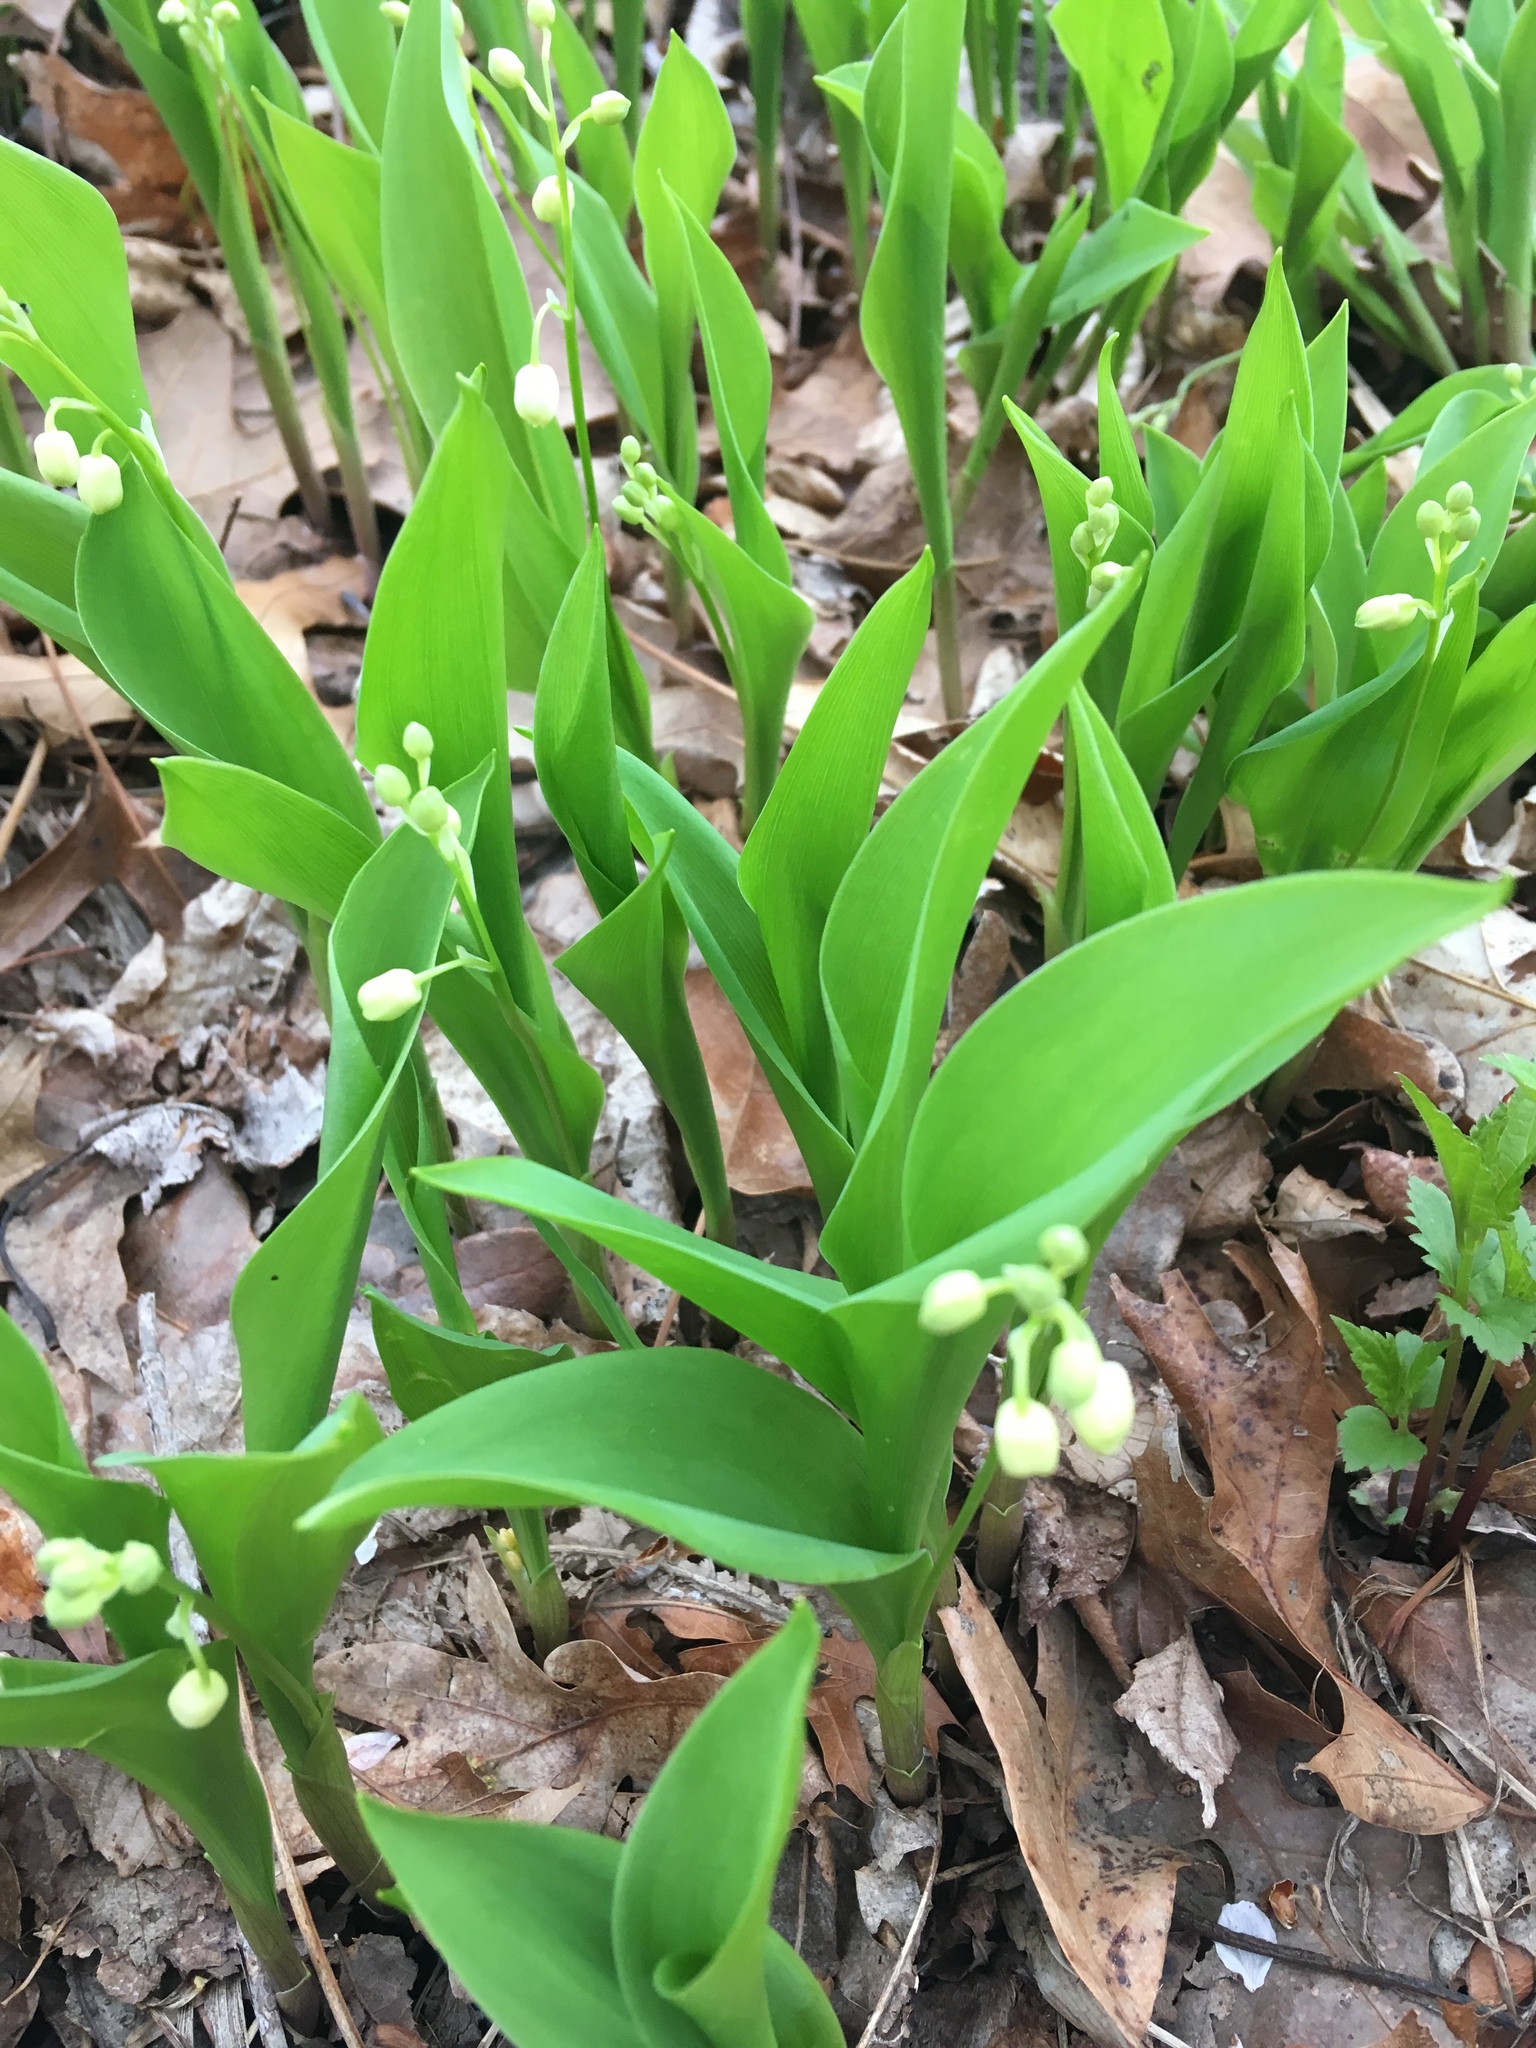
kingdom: Plantae
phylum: Tracheophyta
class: Liliopsida
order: Asparagales
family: Asparagaceae
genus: Convallaria
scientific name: Convallaria majalis
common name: Lily-of-the-valley
